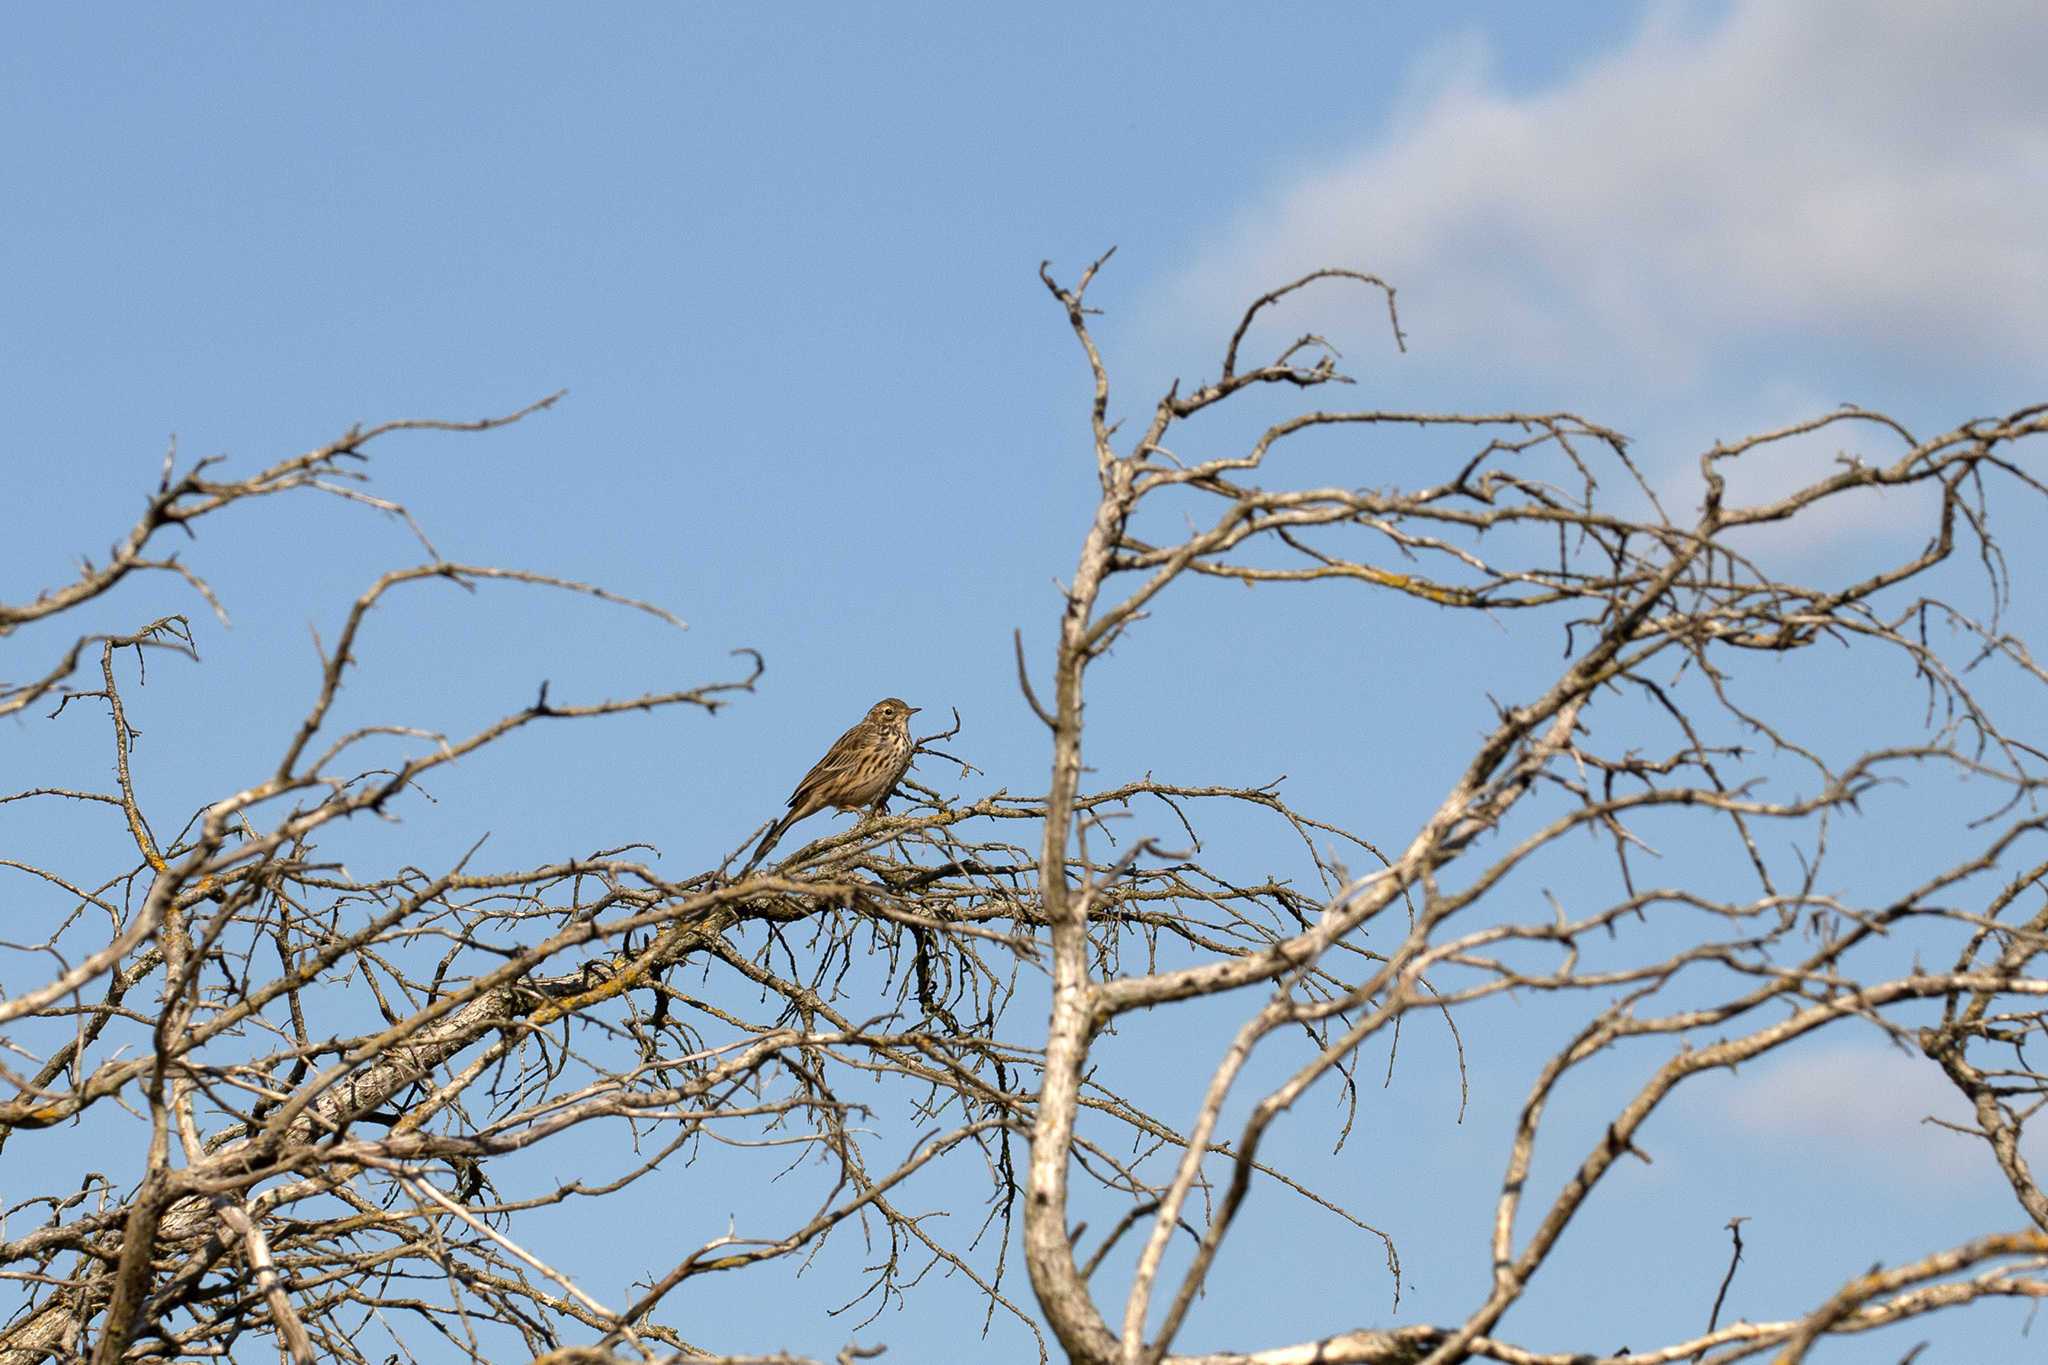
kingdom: Animalia
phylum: Chordata
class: Aves
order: Passeriformes
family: Motacillidae
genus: Anthus
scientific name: Anthus pratensis
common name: Meadow pipit
